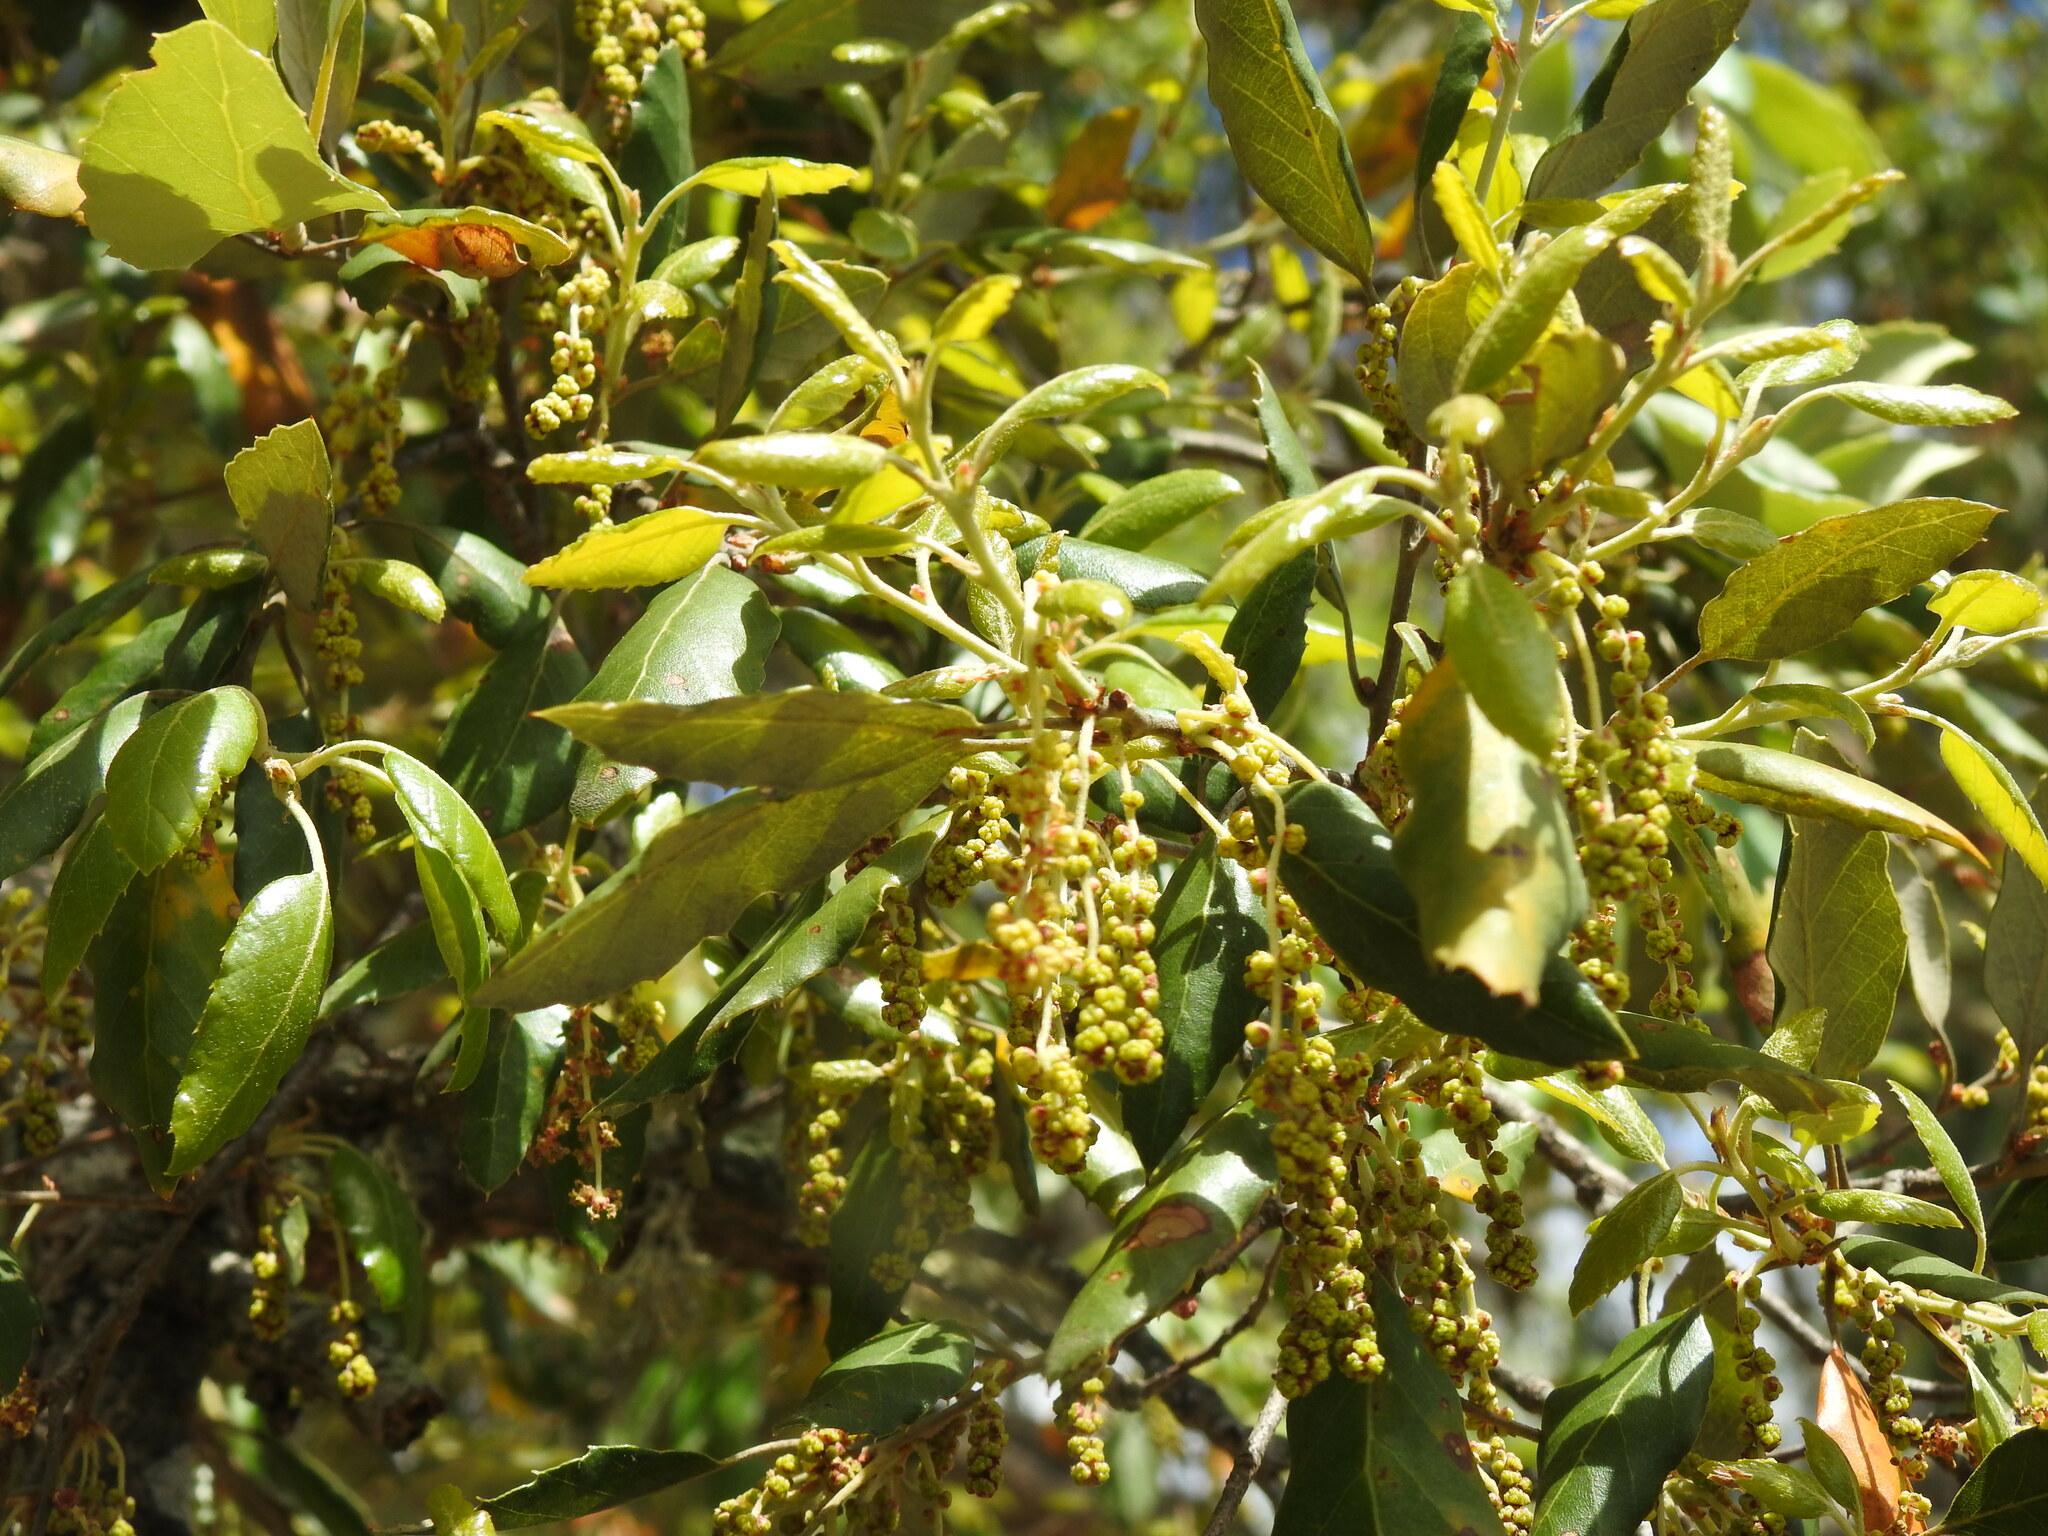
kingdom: Plantae
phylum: Tracheophyta
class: Magnoliopsida
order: Fagales
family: Fagaceae
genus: Quercus
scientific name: Quercus suber
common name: Cork oak
